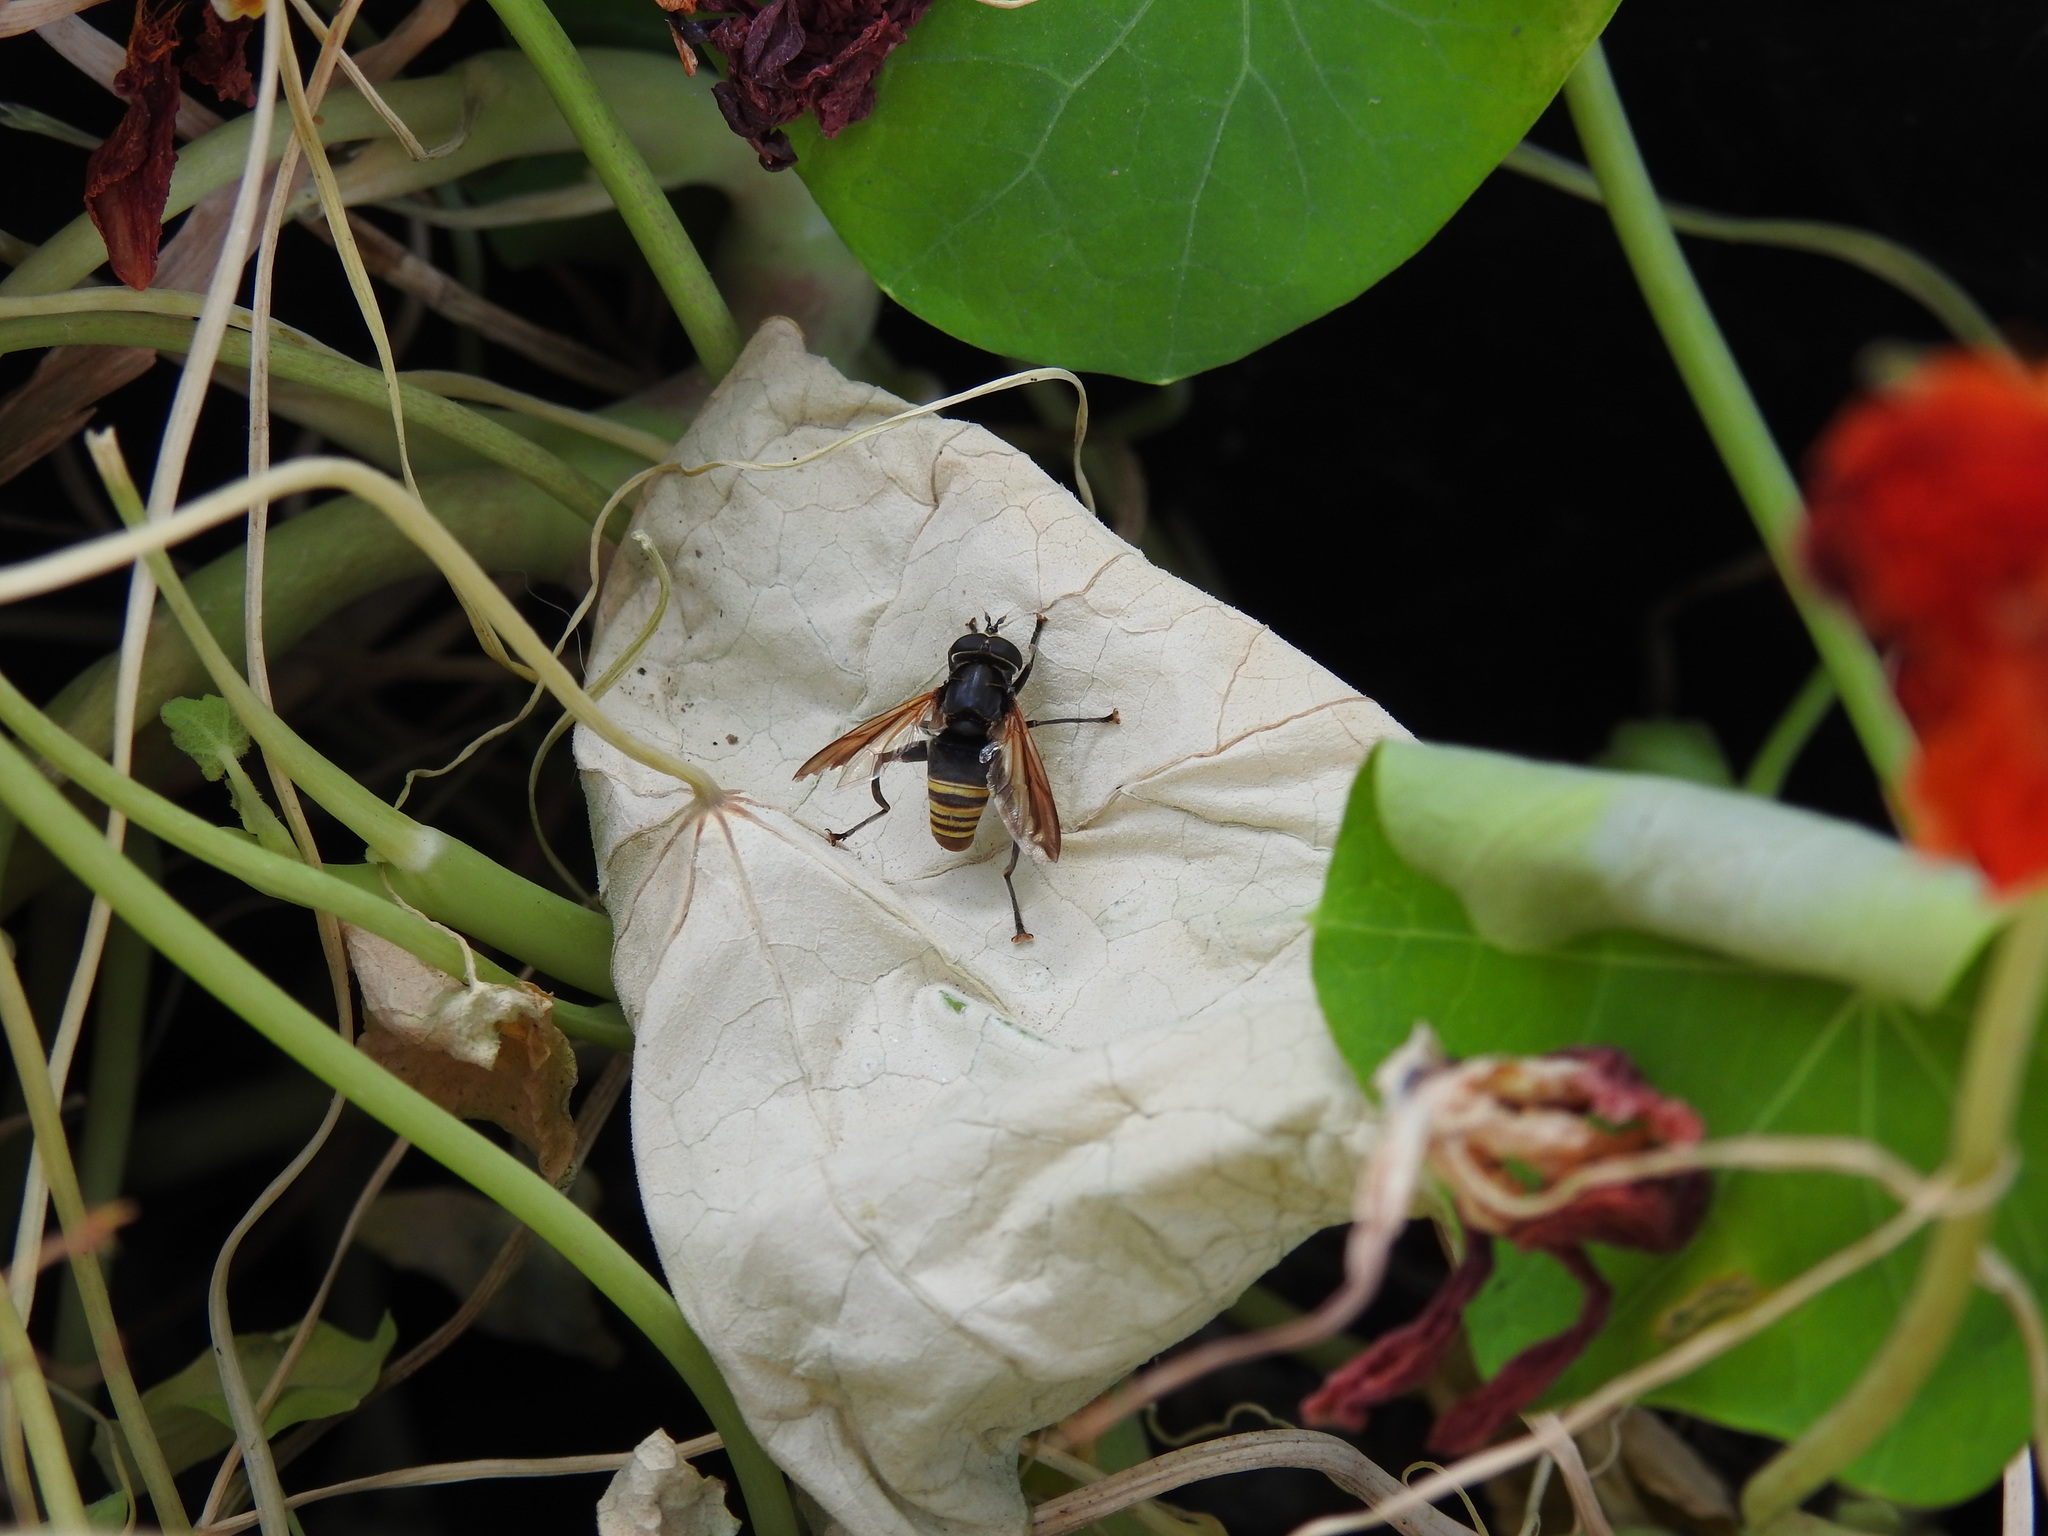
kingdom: Animalia
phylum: Arthropoda
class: Insecta
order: Diptera
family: Syrphidae
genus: Meromacrus
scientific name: Meromacrus nectarinoides
